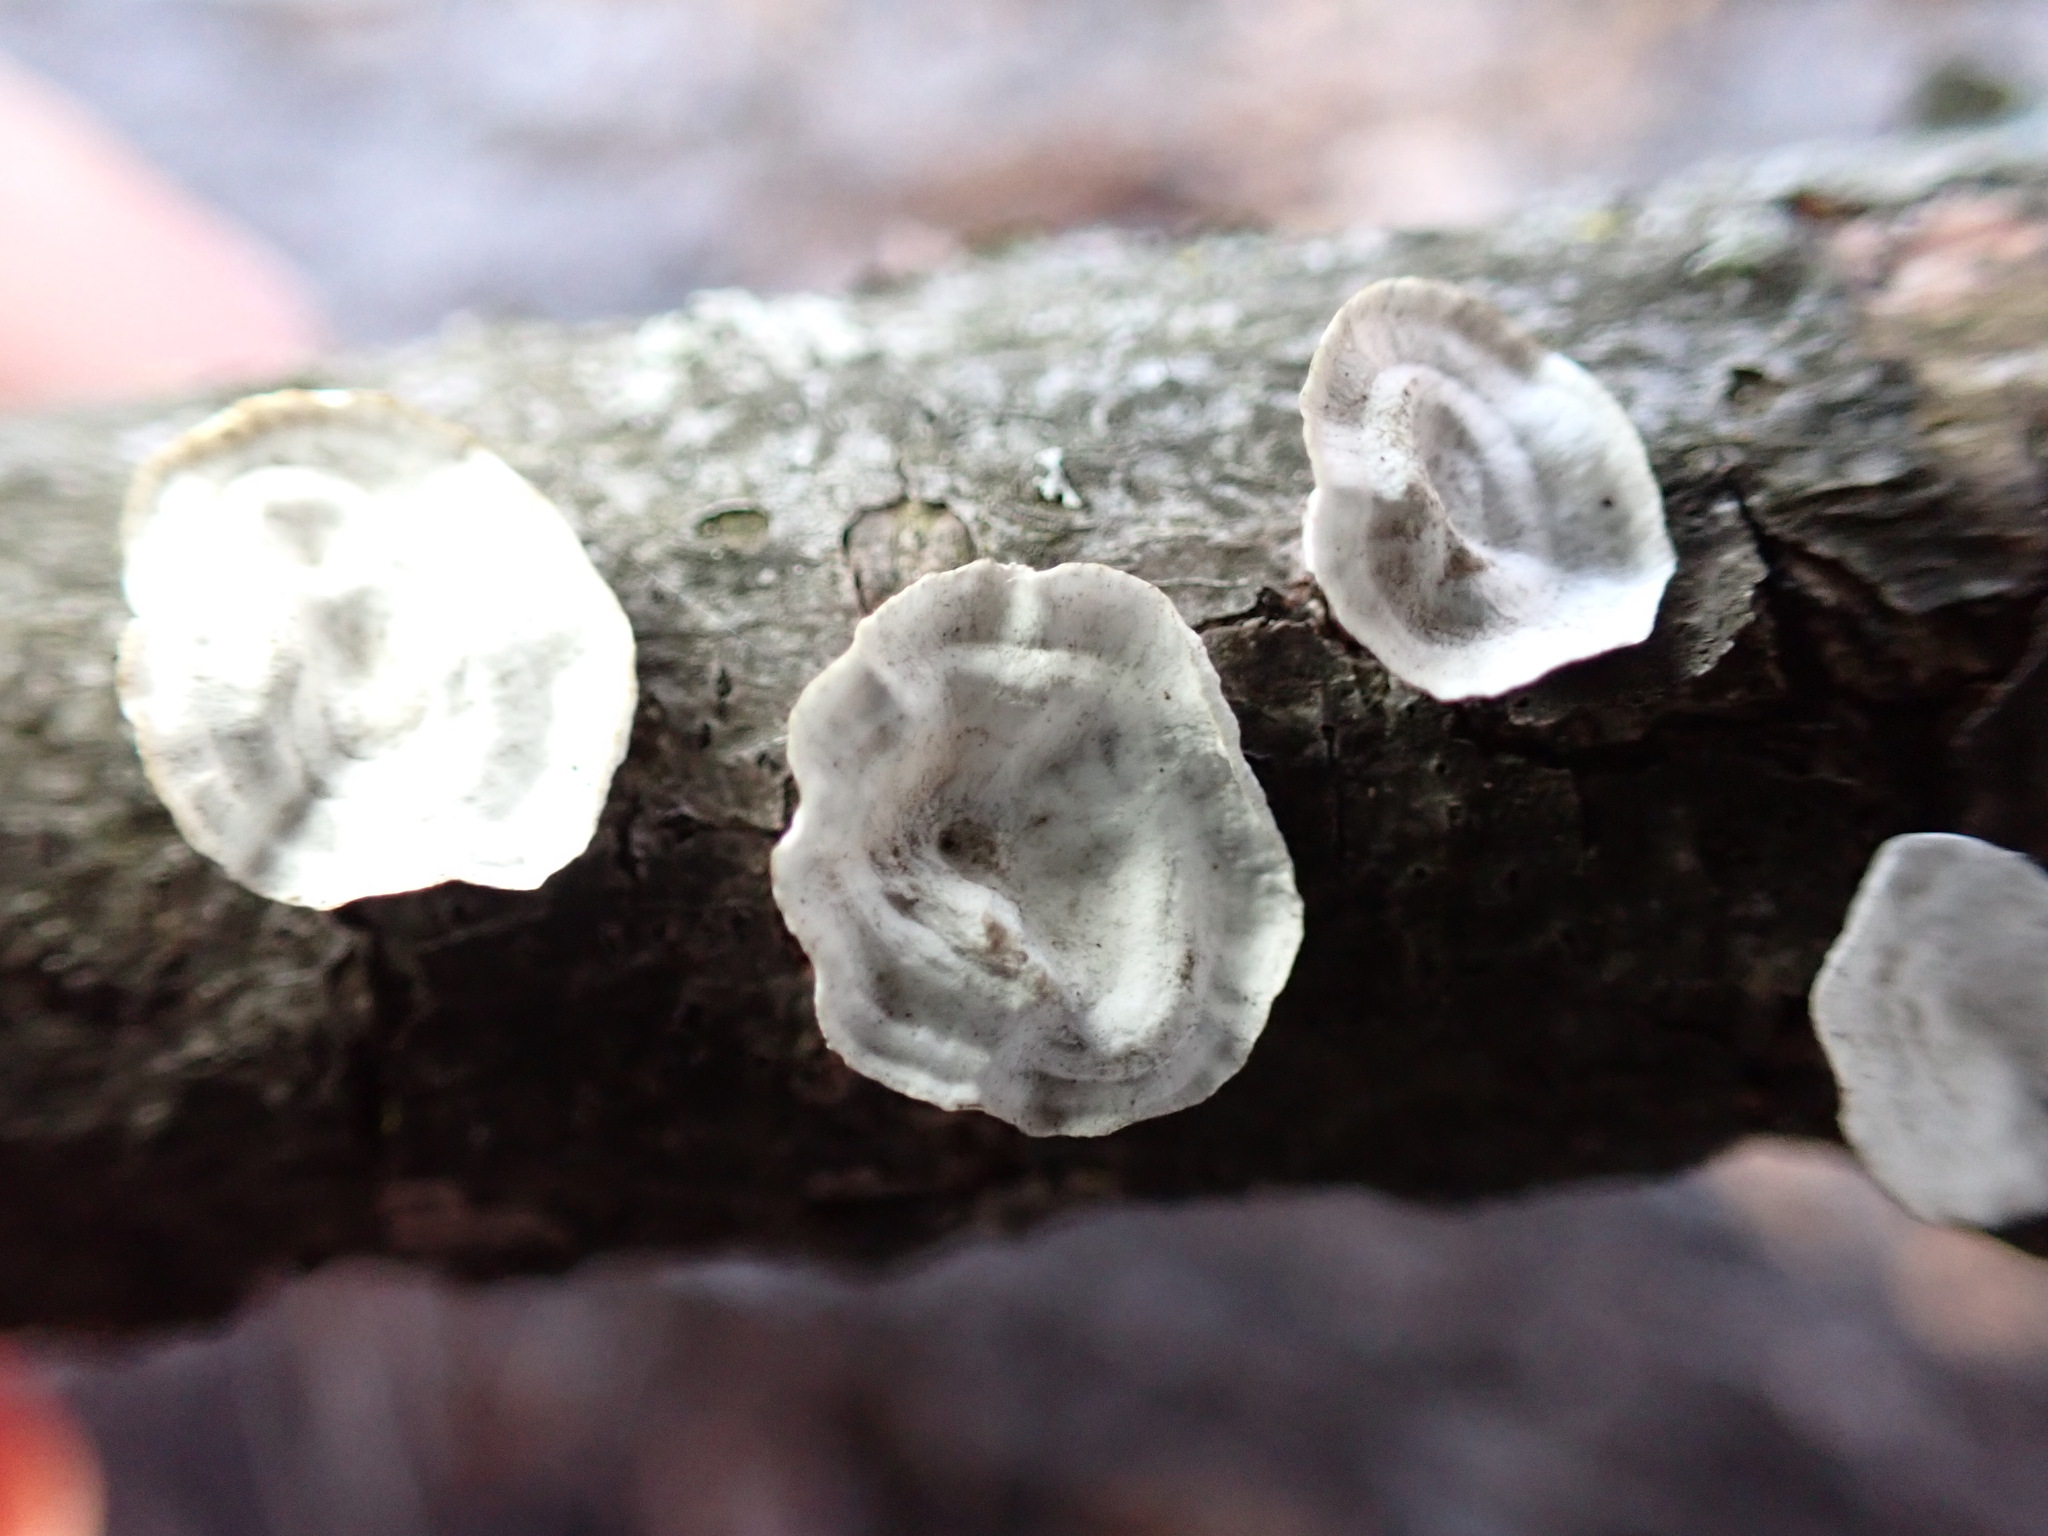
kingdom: Fungi
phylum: Basidiomycota
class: Agaricomycetes
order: Polyporales
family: Polyporaceae
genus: Poronidulus
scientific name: Poronidulus conchifer
